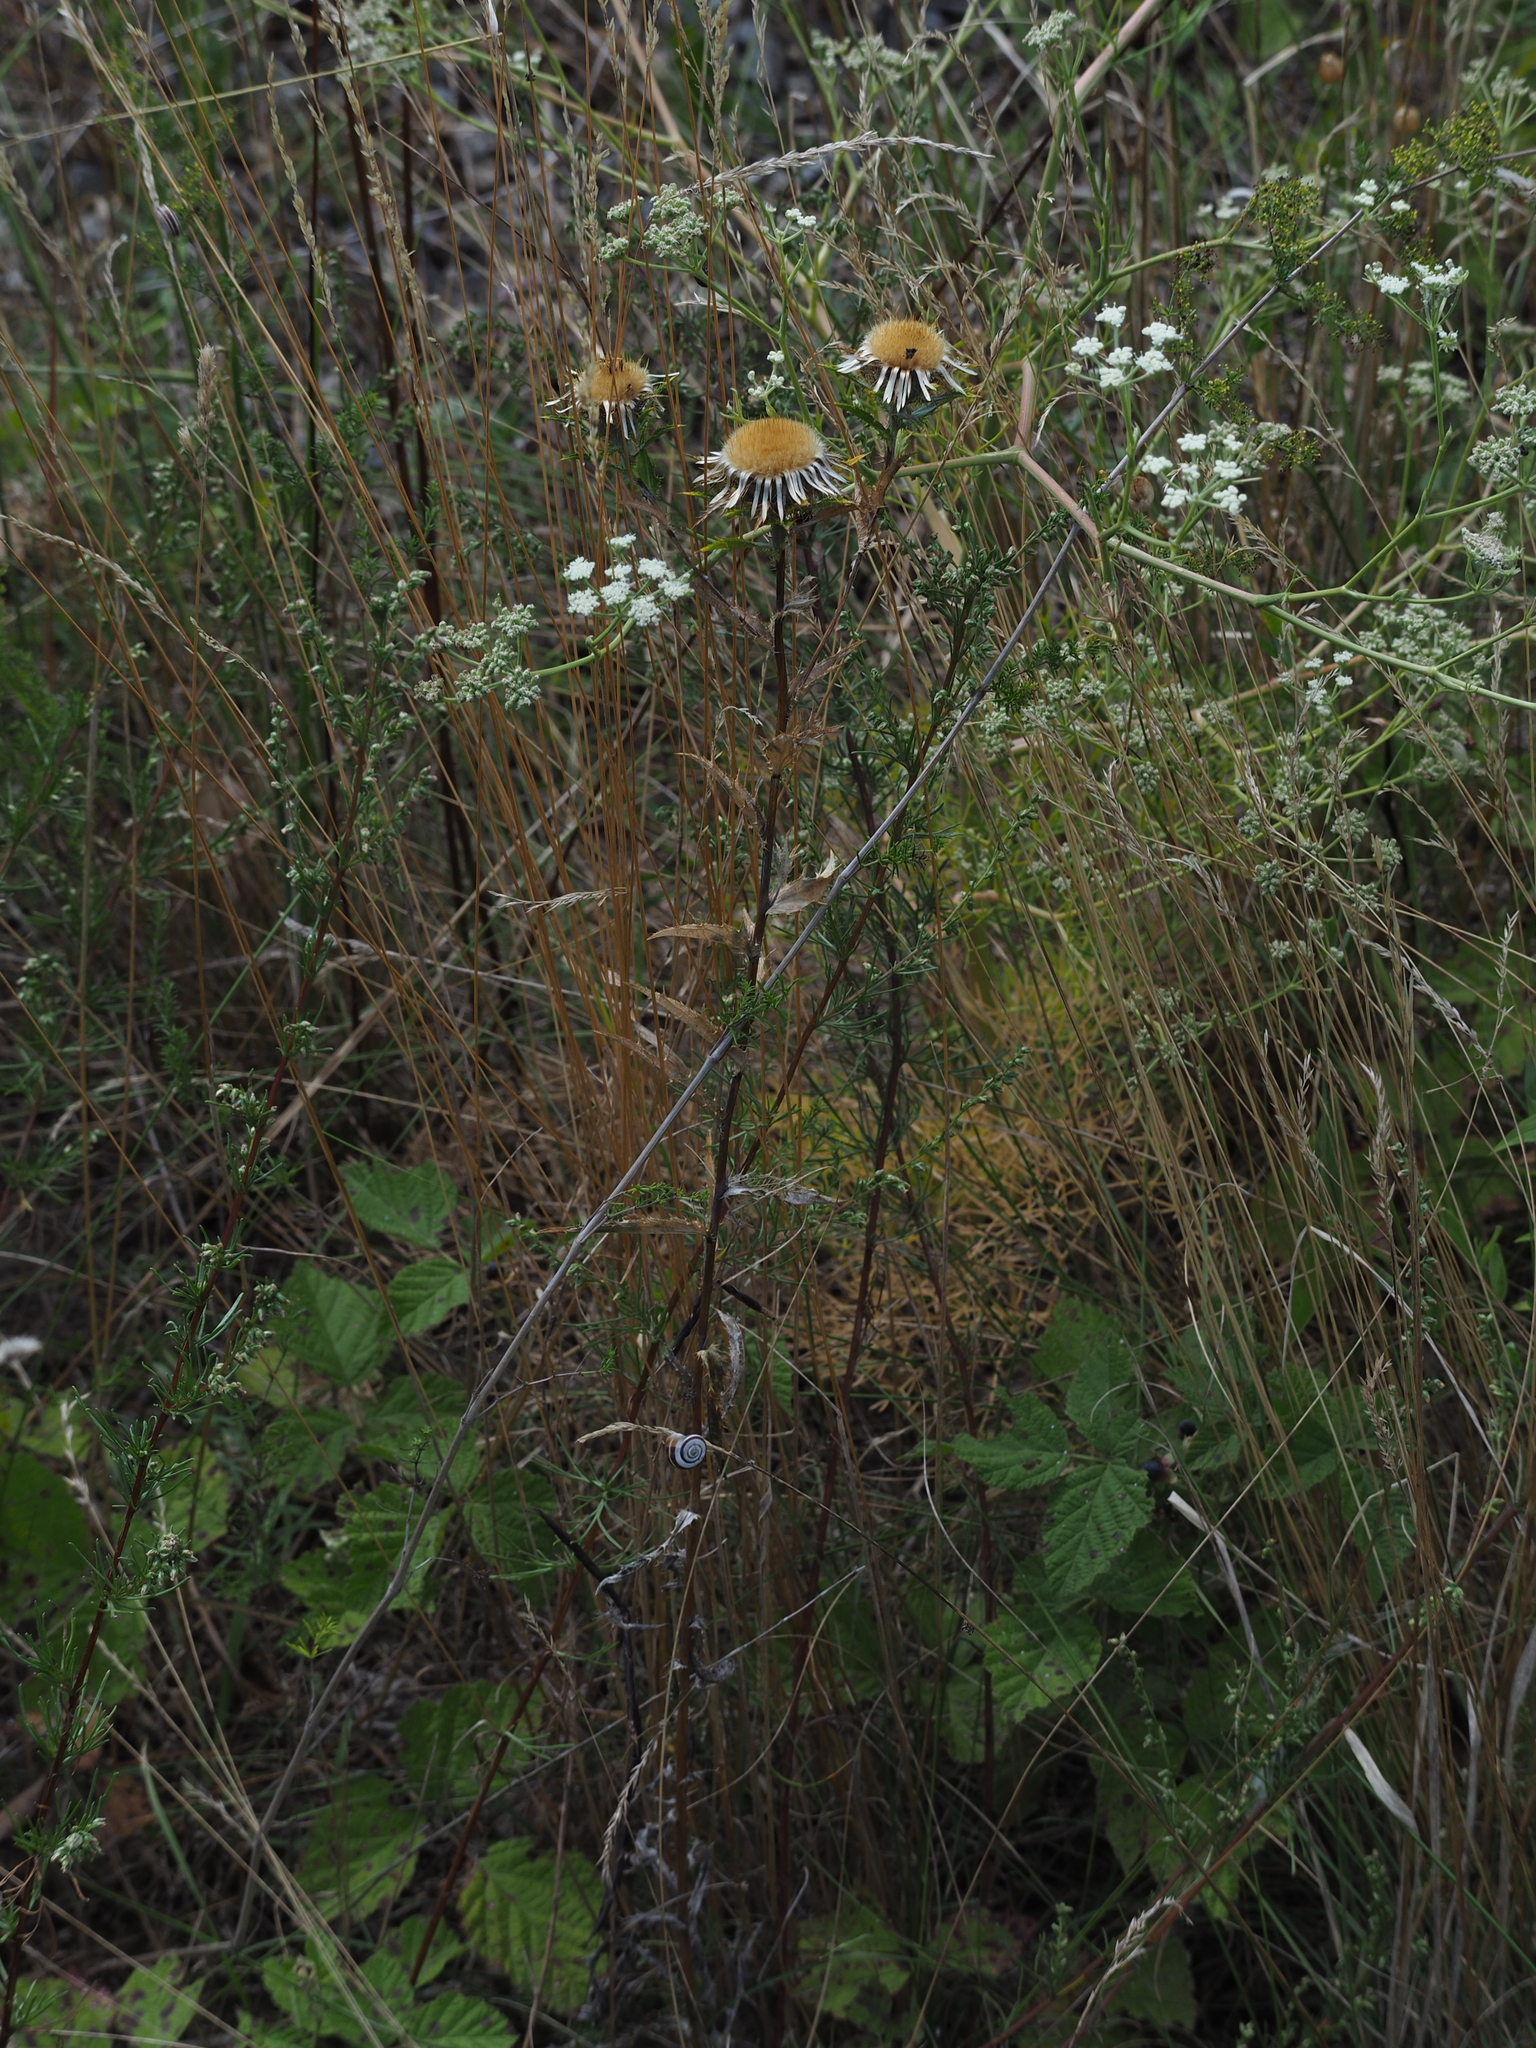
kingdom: Plantae
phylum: Tracheophyta
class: Magnoliopsida
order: Asterales
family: Asteraceae
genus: Carlina
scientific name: Carlina biebersteinii
